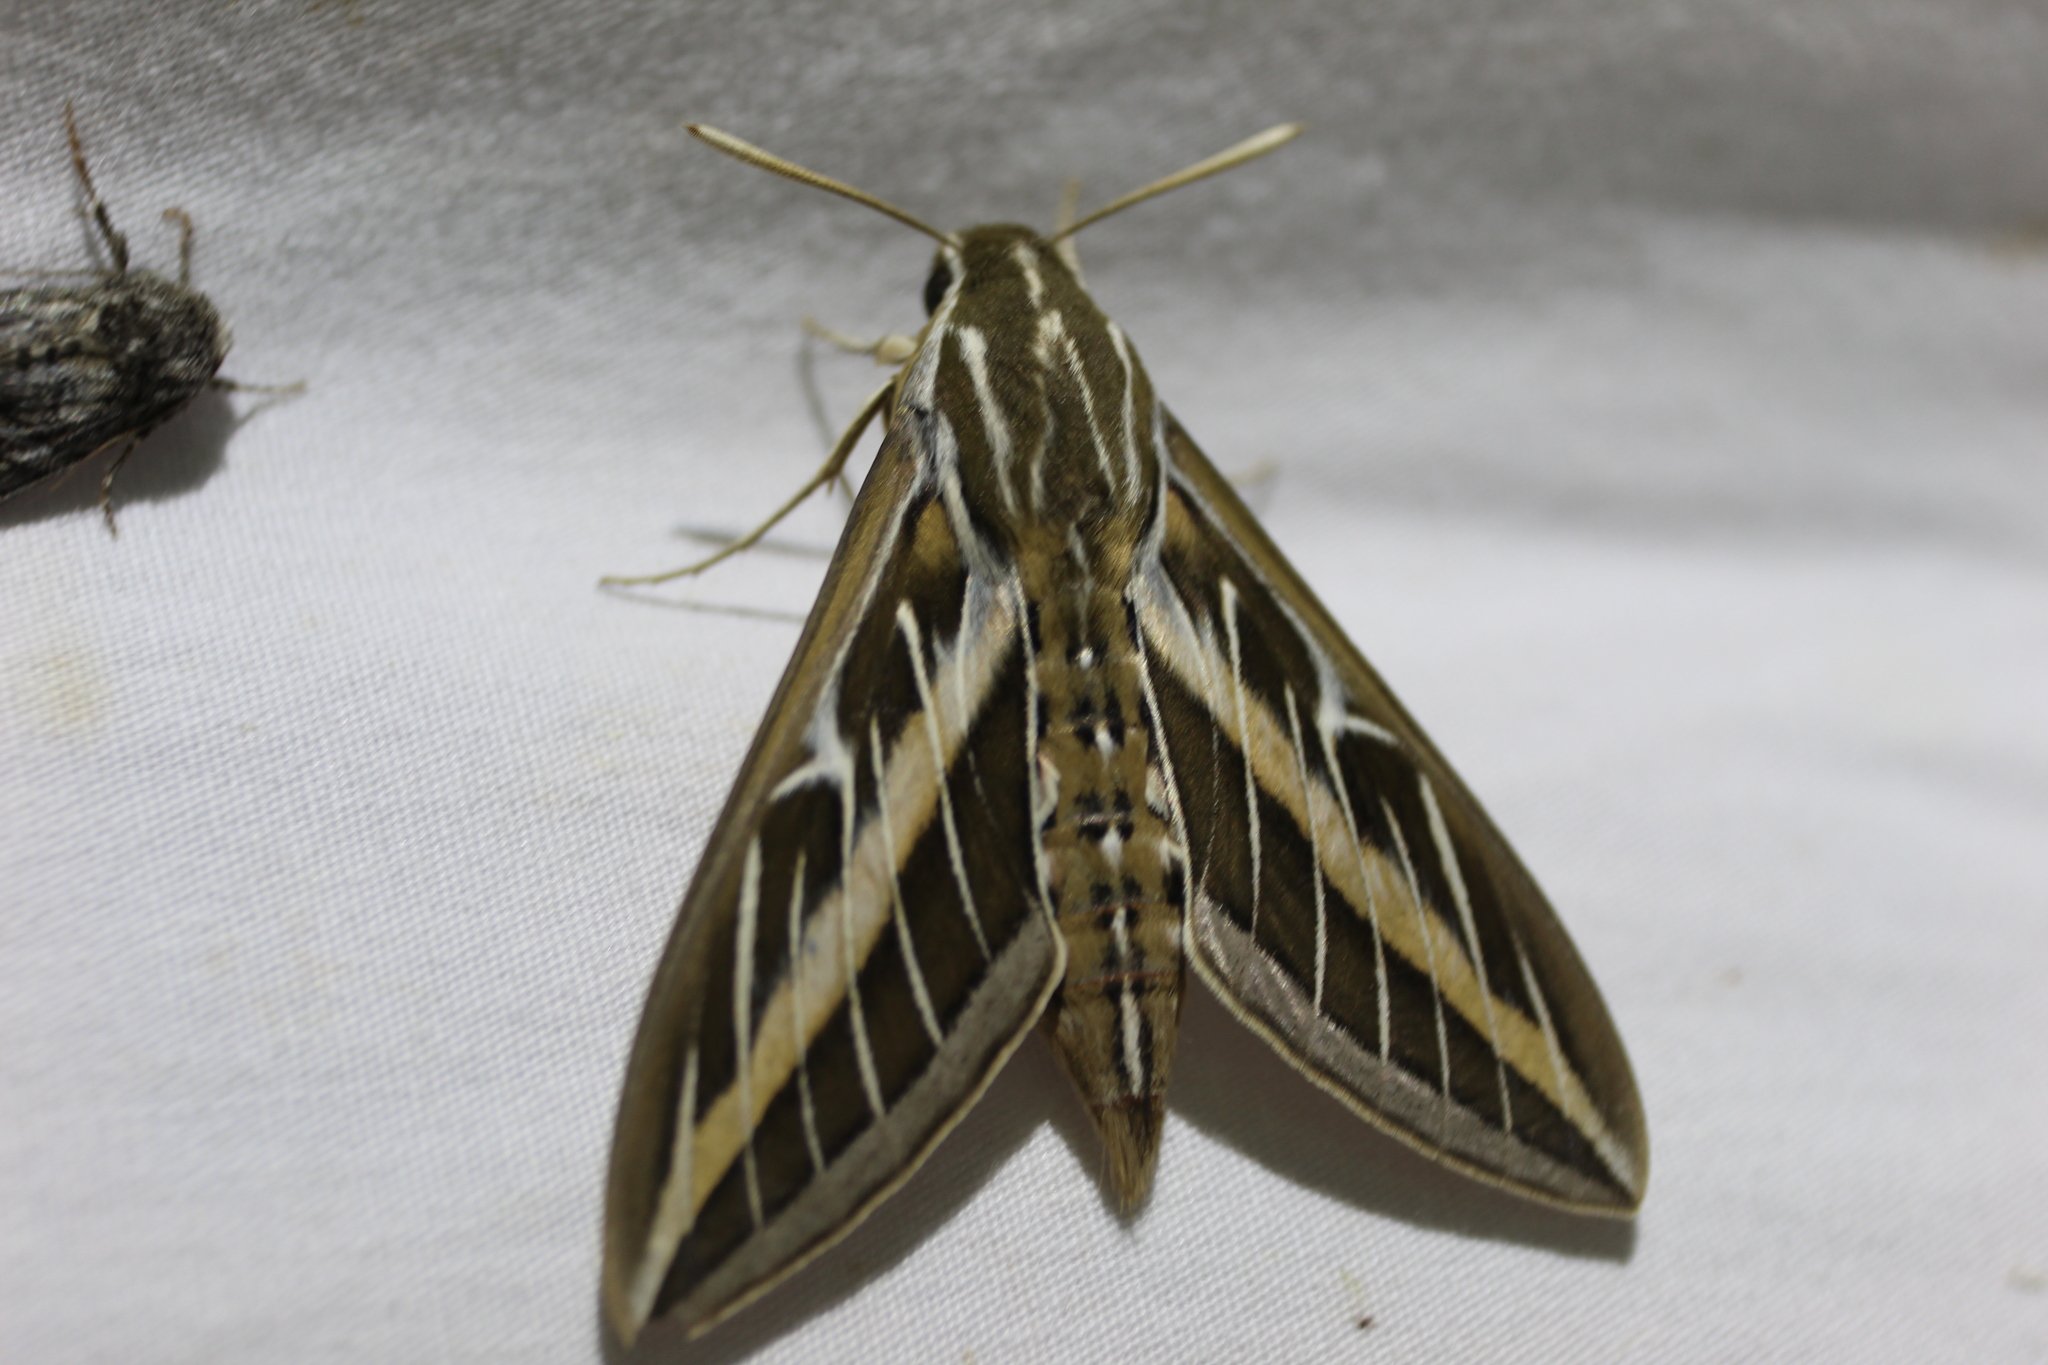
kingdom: Animalia
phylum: Arthropoda
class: Insecta
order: Lepidoptera
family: Sphingidae
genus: Hyles
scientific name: Hyles lineata
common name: White-lined sphinx
